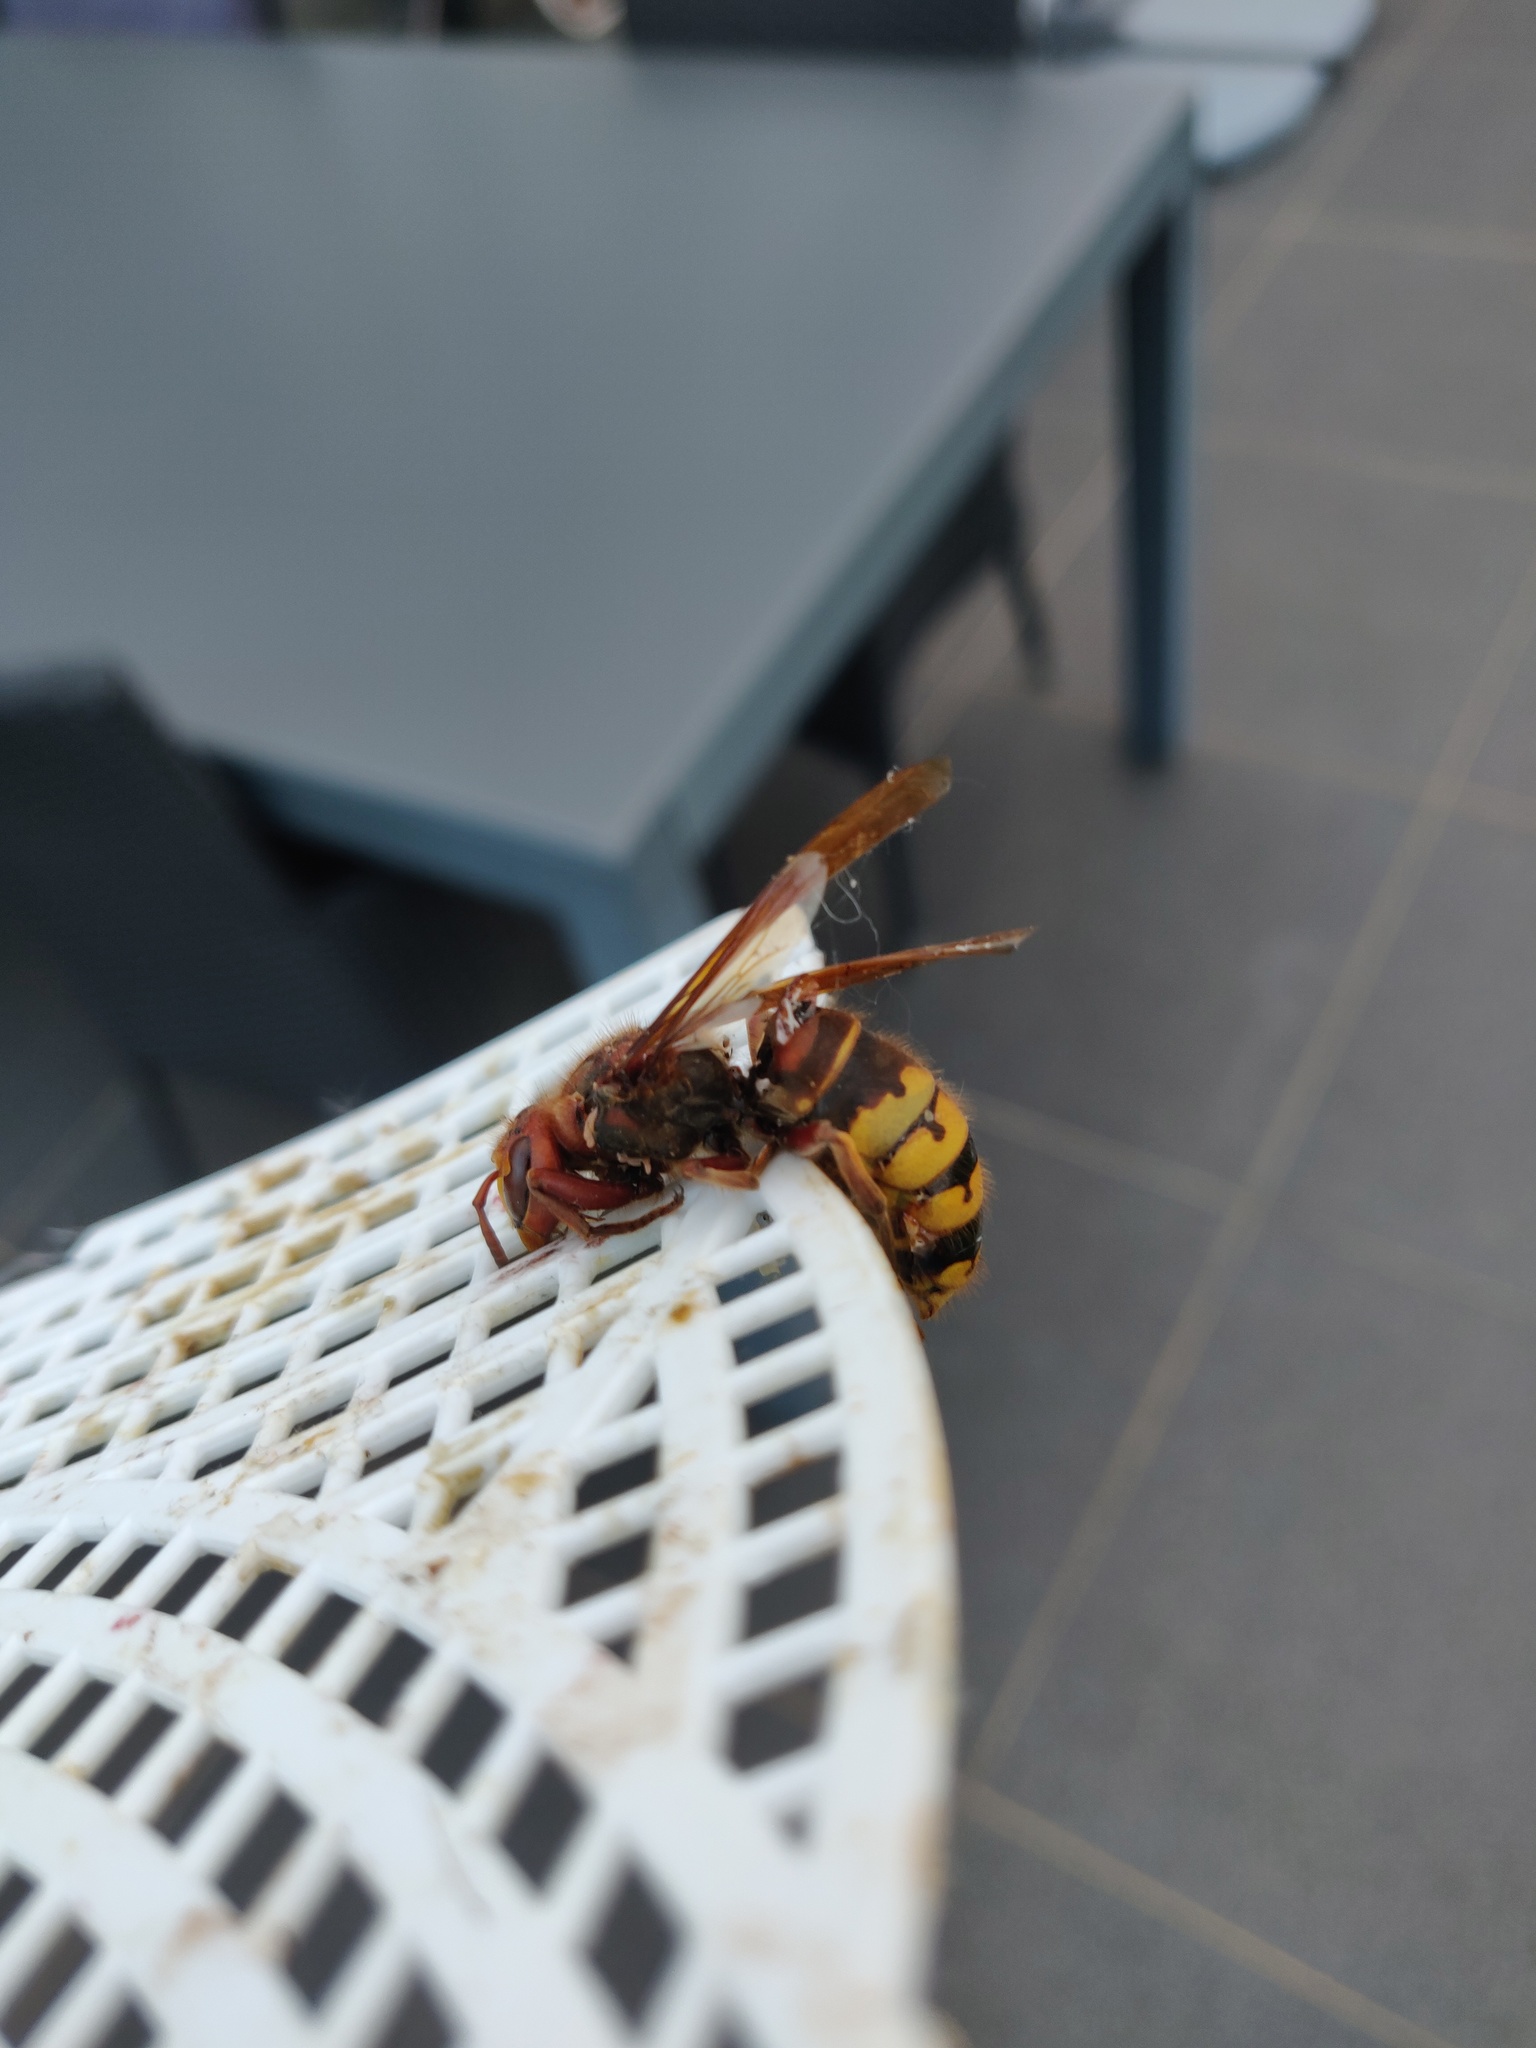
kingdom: Animalia
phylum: Arthropoda
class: Insecta
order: Hymenoptera
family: Vespidae
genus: Vespa
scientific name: Vespa crabro
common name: Hornet
